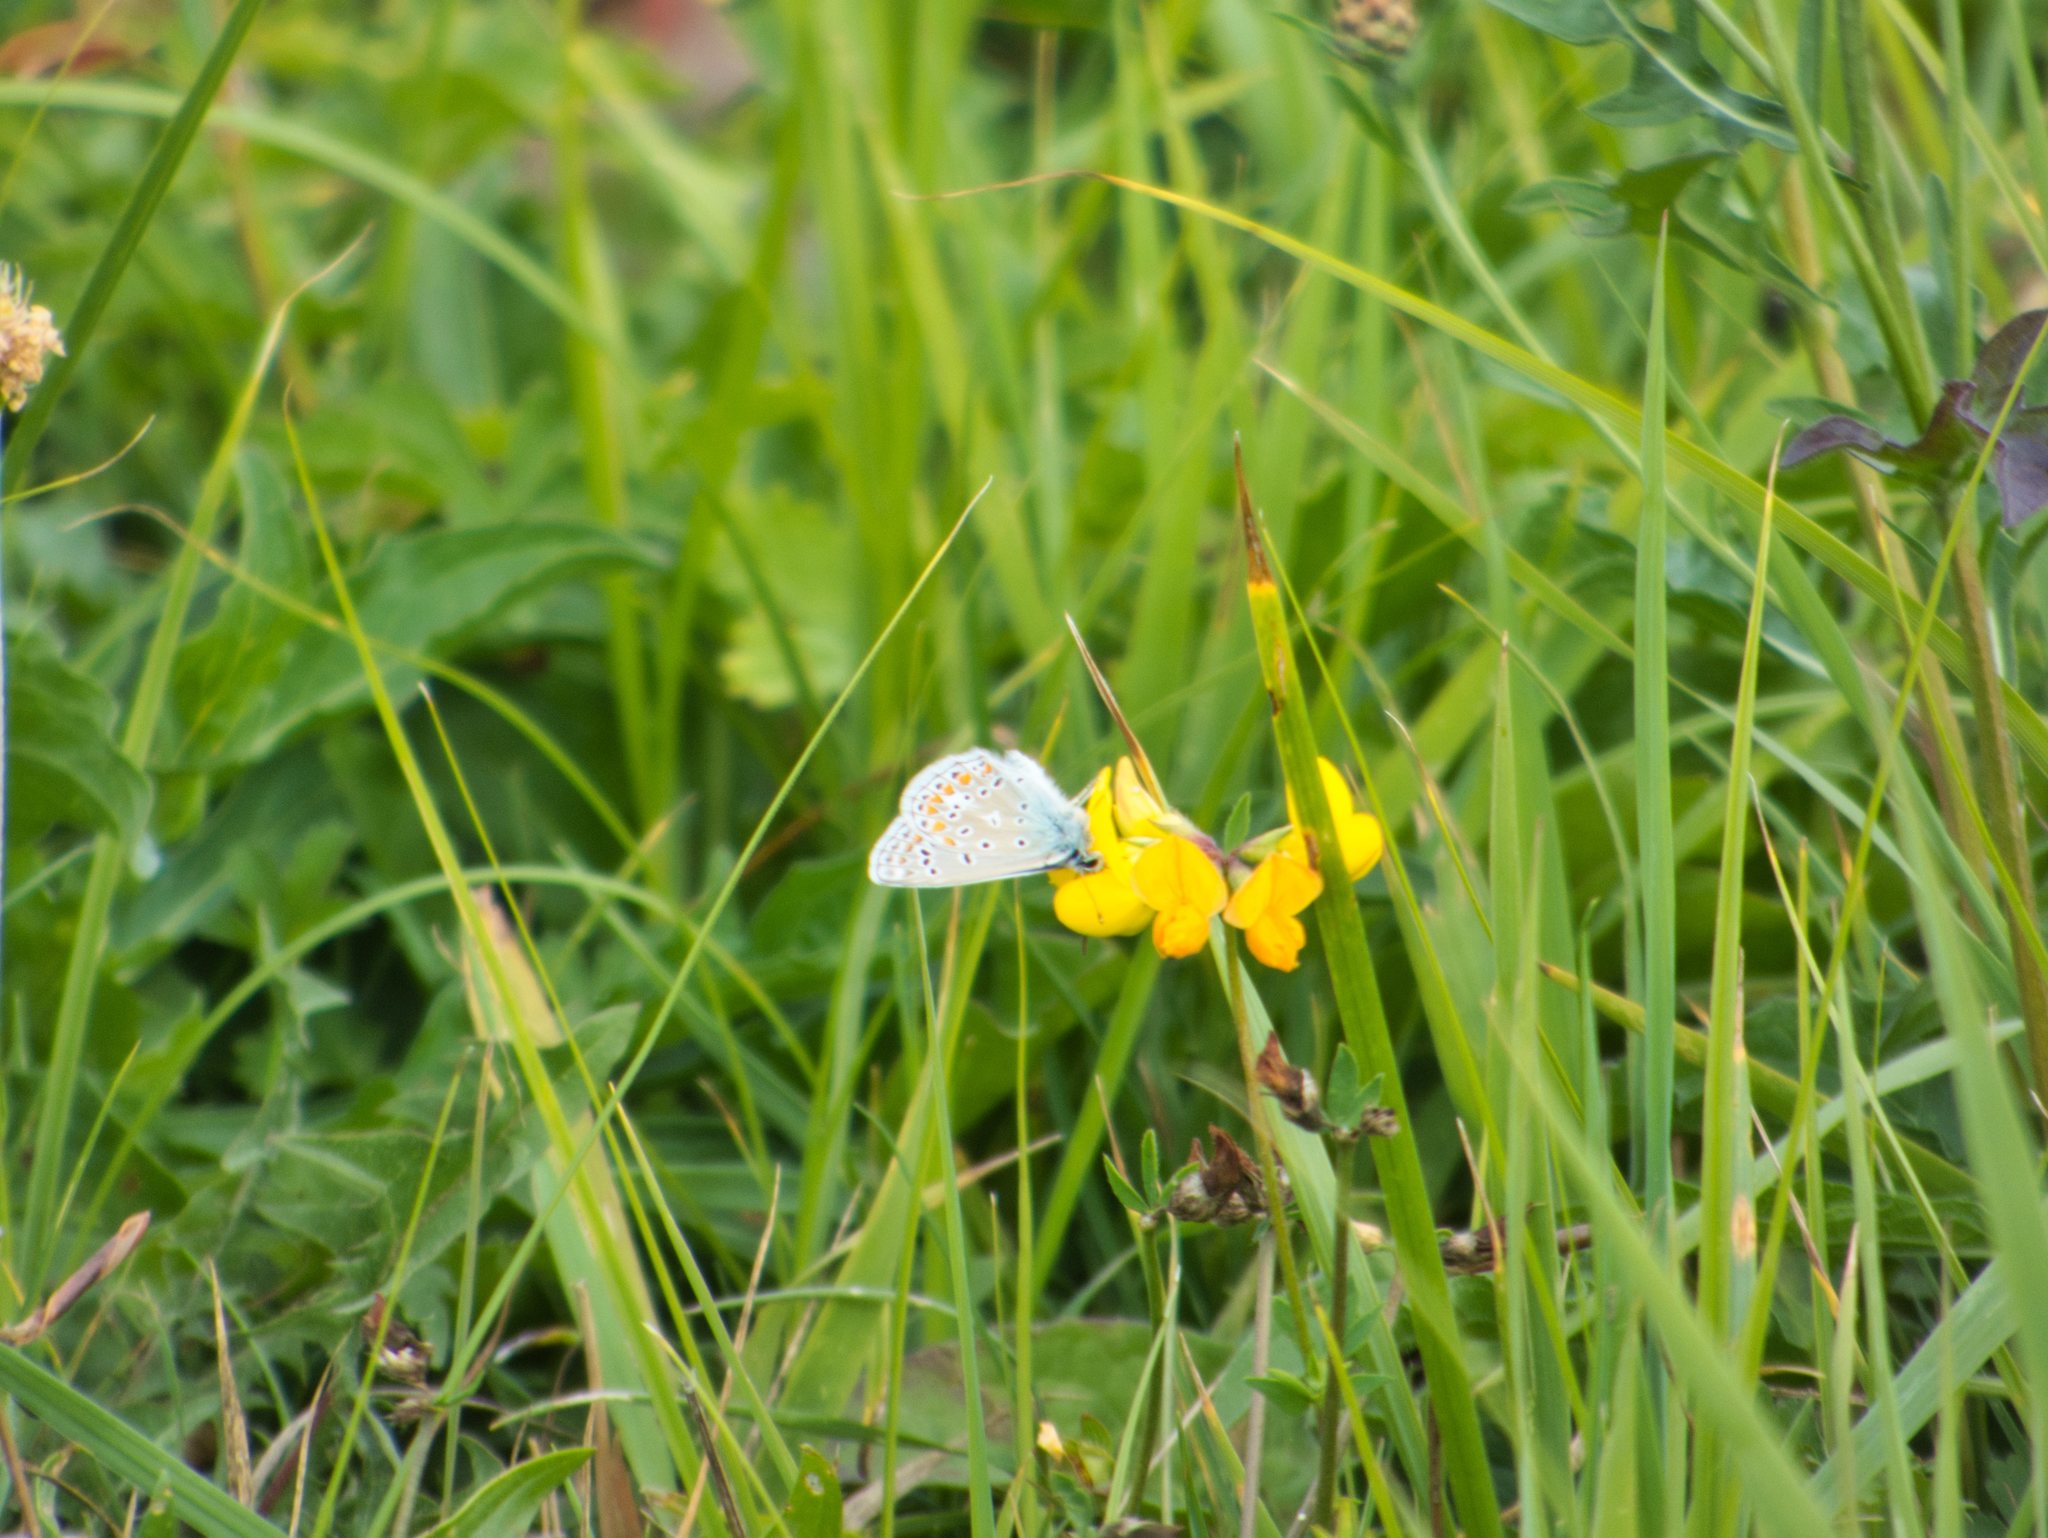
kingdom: Animalia
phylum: Arthropoda
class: Insecta
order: Lepidoptera
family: Lycaenidae
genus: Polyommatus
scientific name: Polyommatus icarus
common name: Common blue
